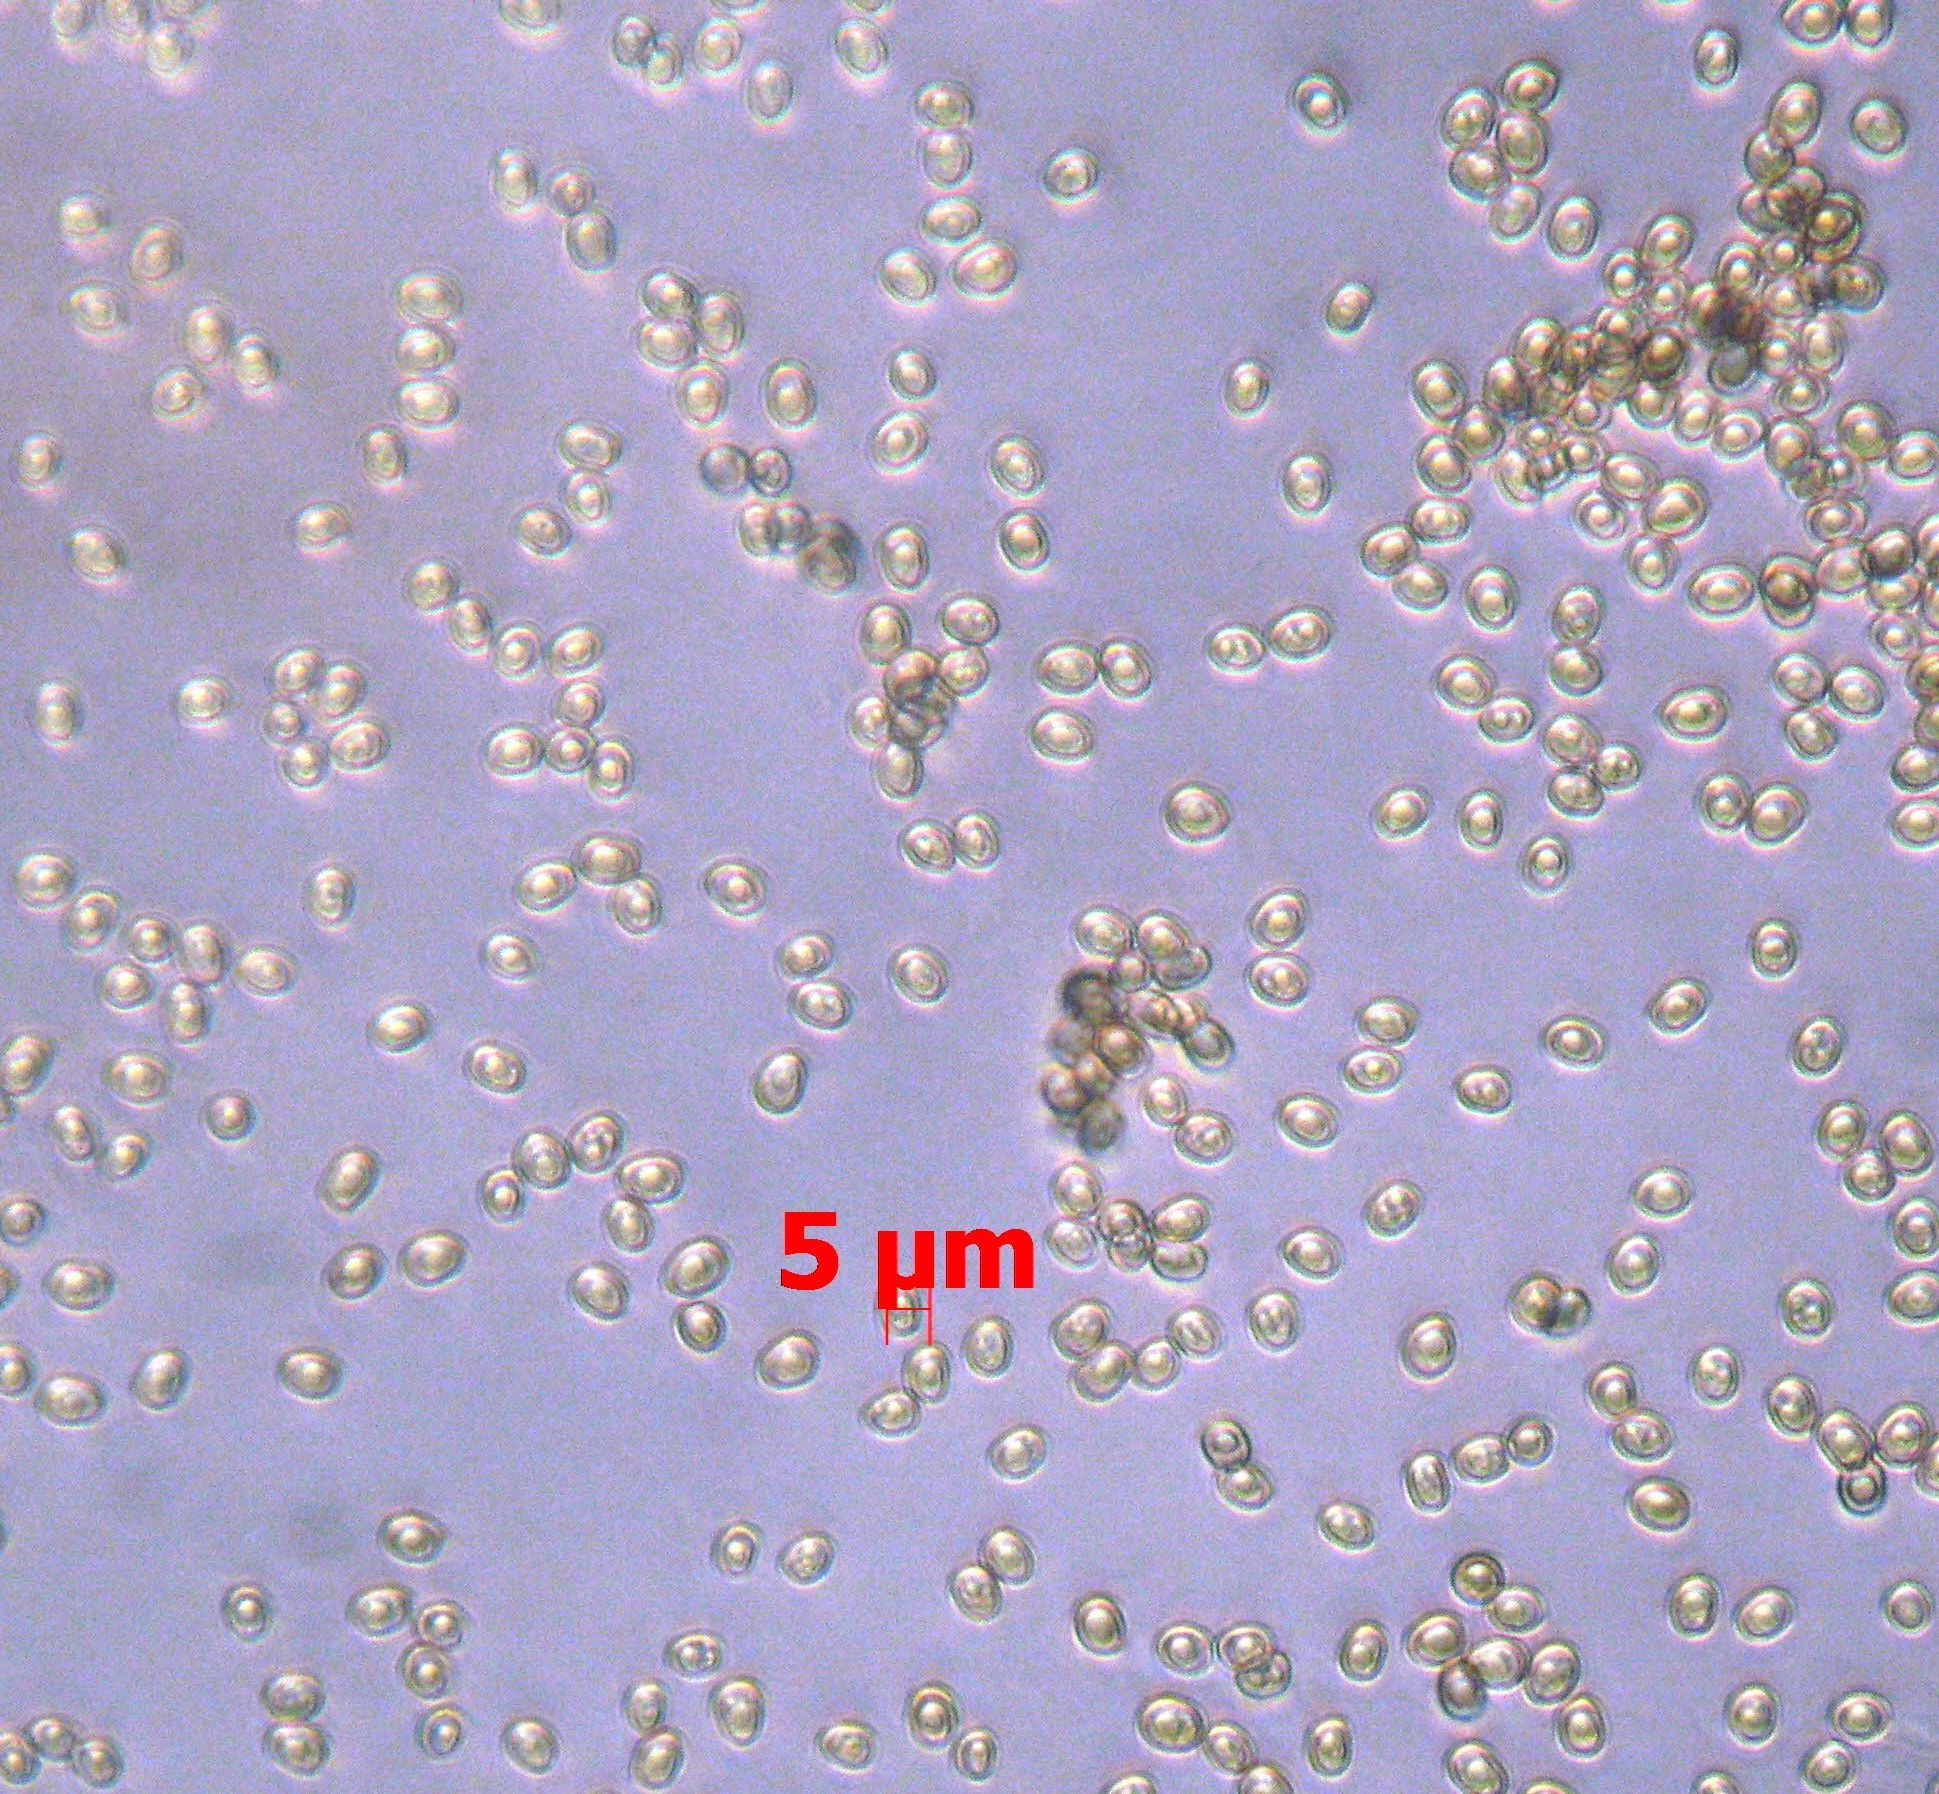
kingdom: Fungi
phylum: Basidiomycota
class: Agaricomycetes
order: Agaricales
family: Pluteaceae
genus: Pluteus
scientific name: Pluteus readiarum
